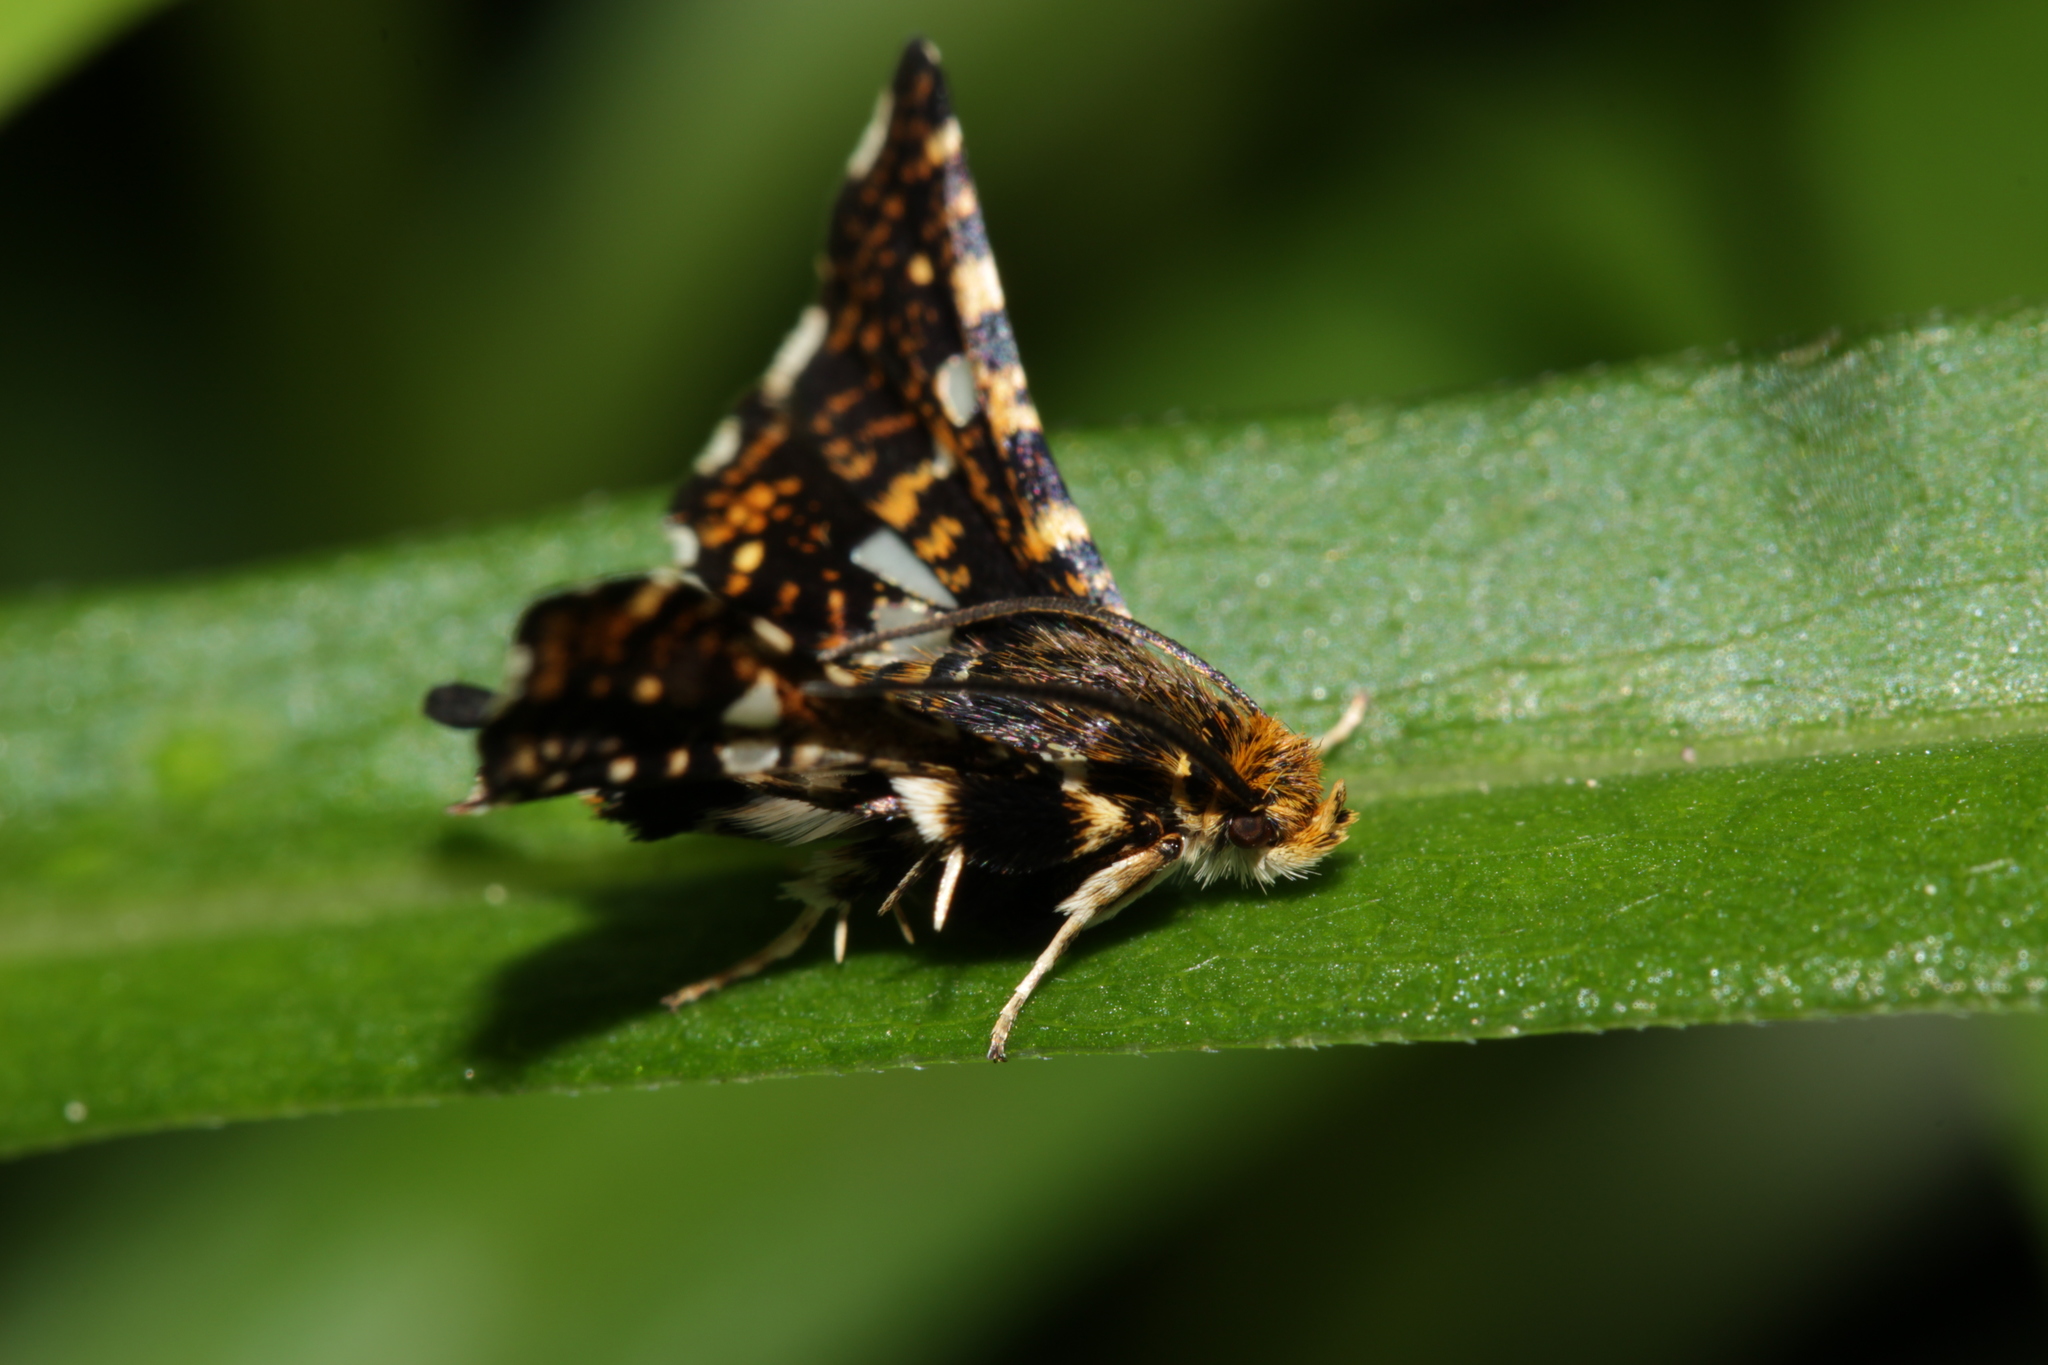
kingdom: Animalia
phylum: Arthropoda
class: Insecta
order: Lepidoptera
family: Thyrididae
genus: Thyris
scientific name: Thyris fenestrella
